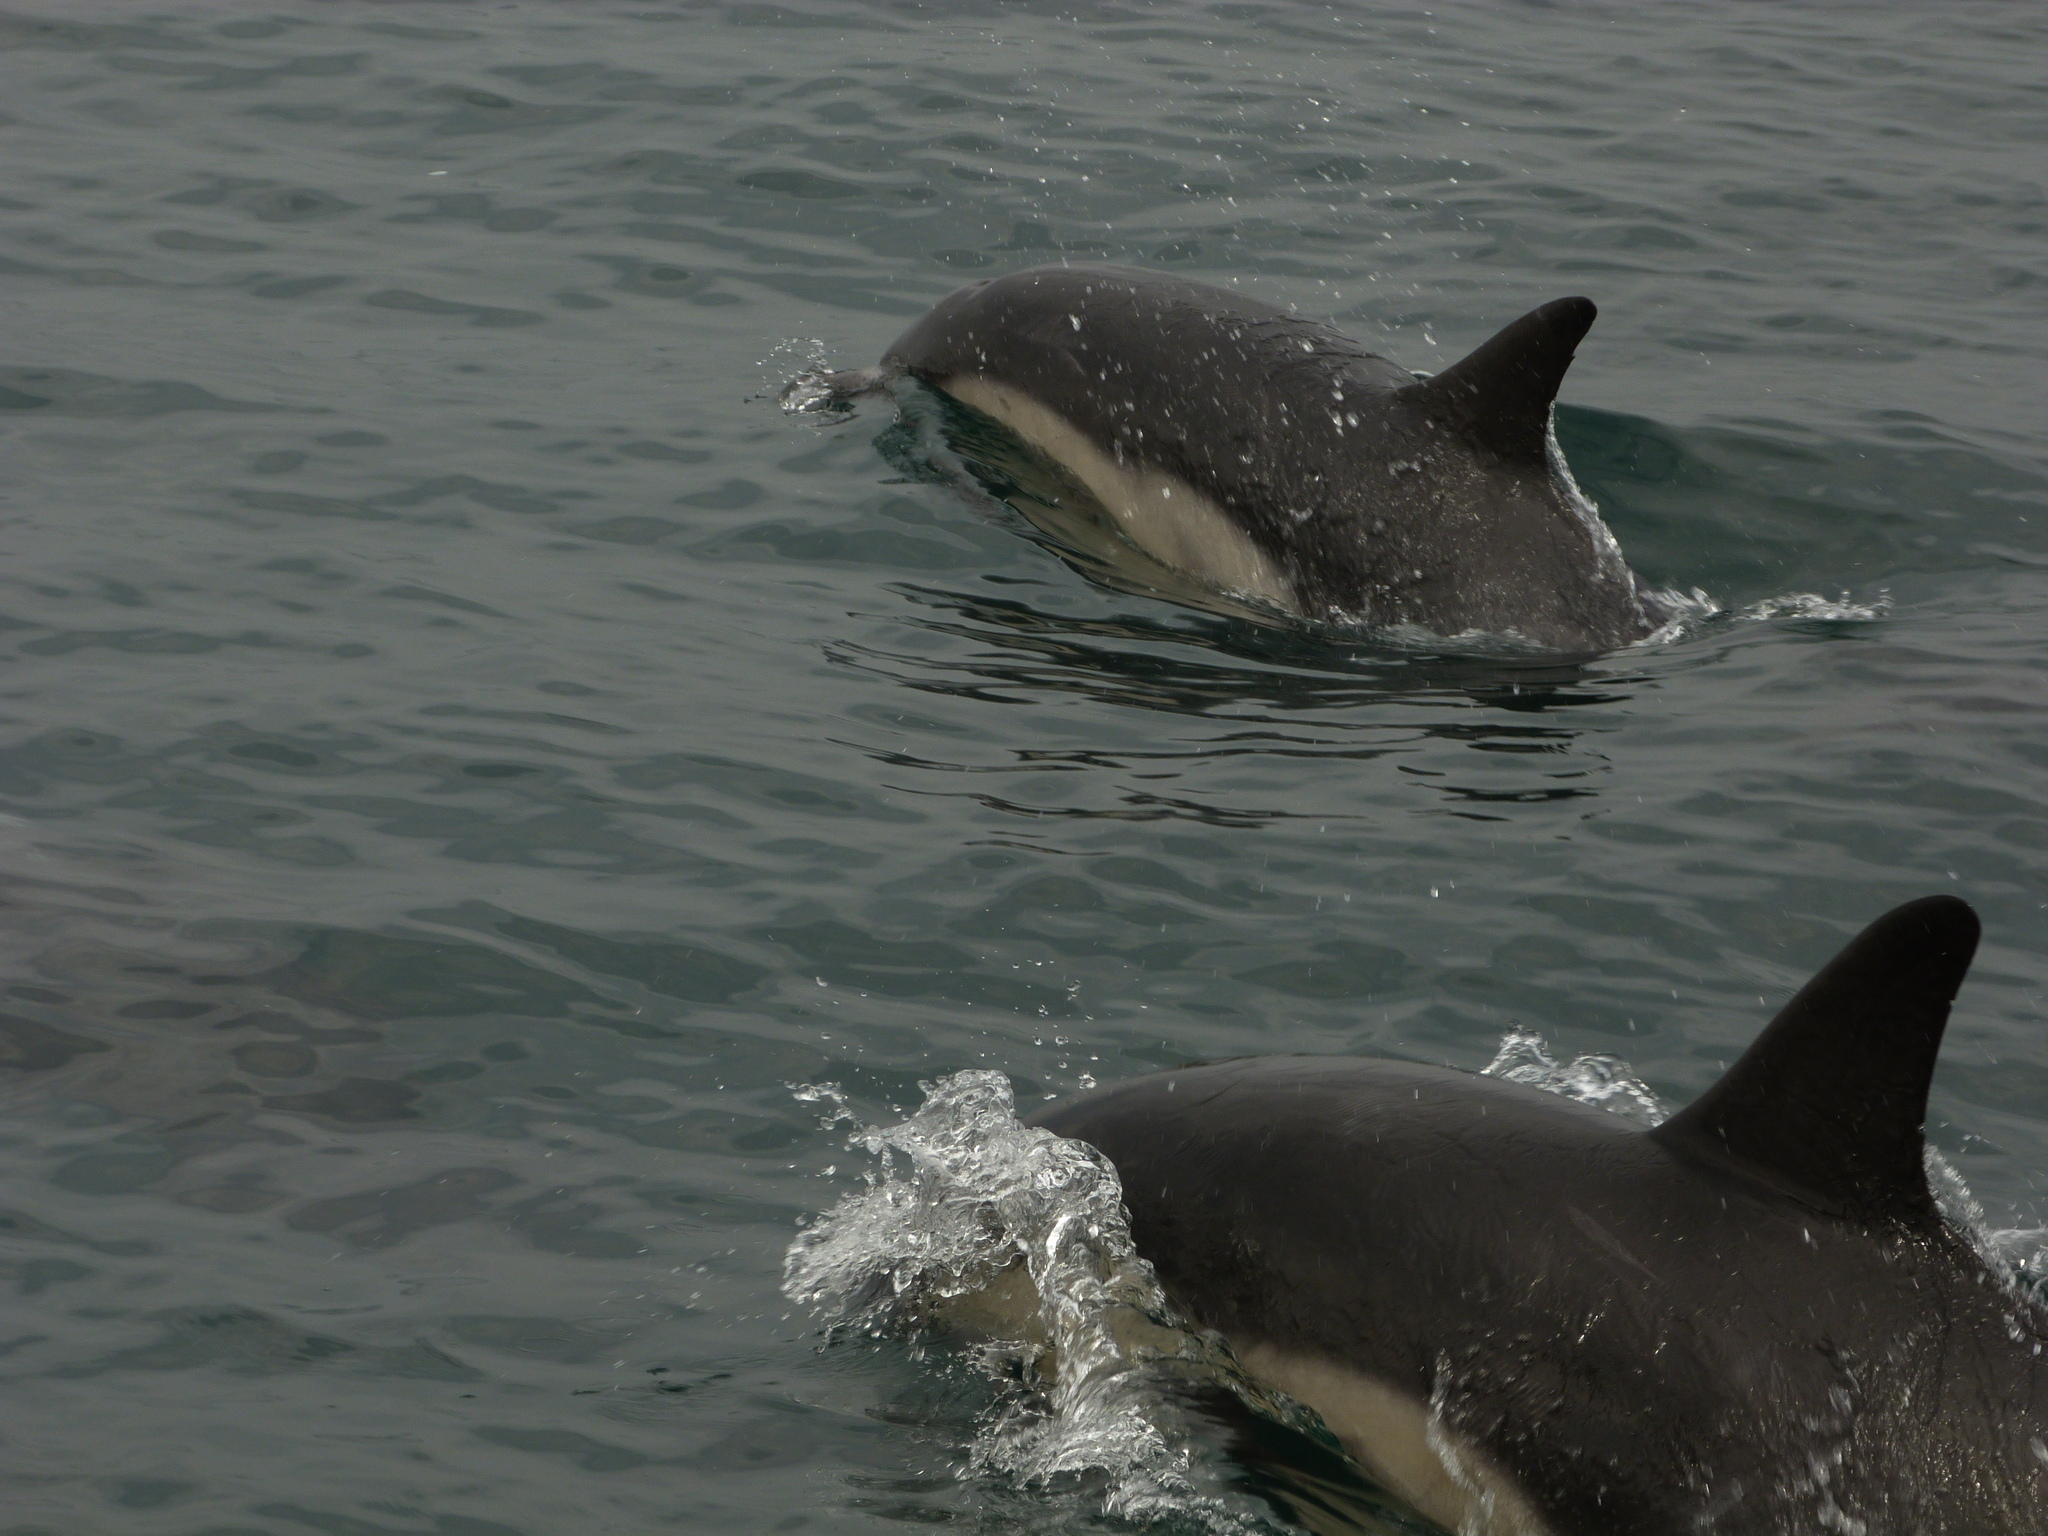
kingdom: Animalia
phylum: Chordata
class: Mammalia
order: Cetacea
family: Delphinidae
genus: Delphinus
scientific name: Delphinus delphis
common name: Common dolphin
